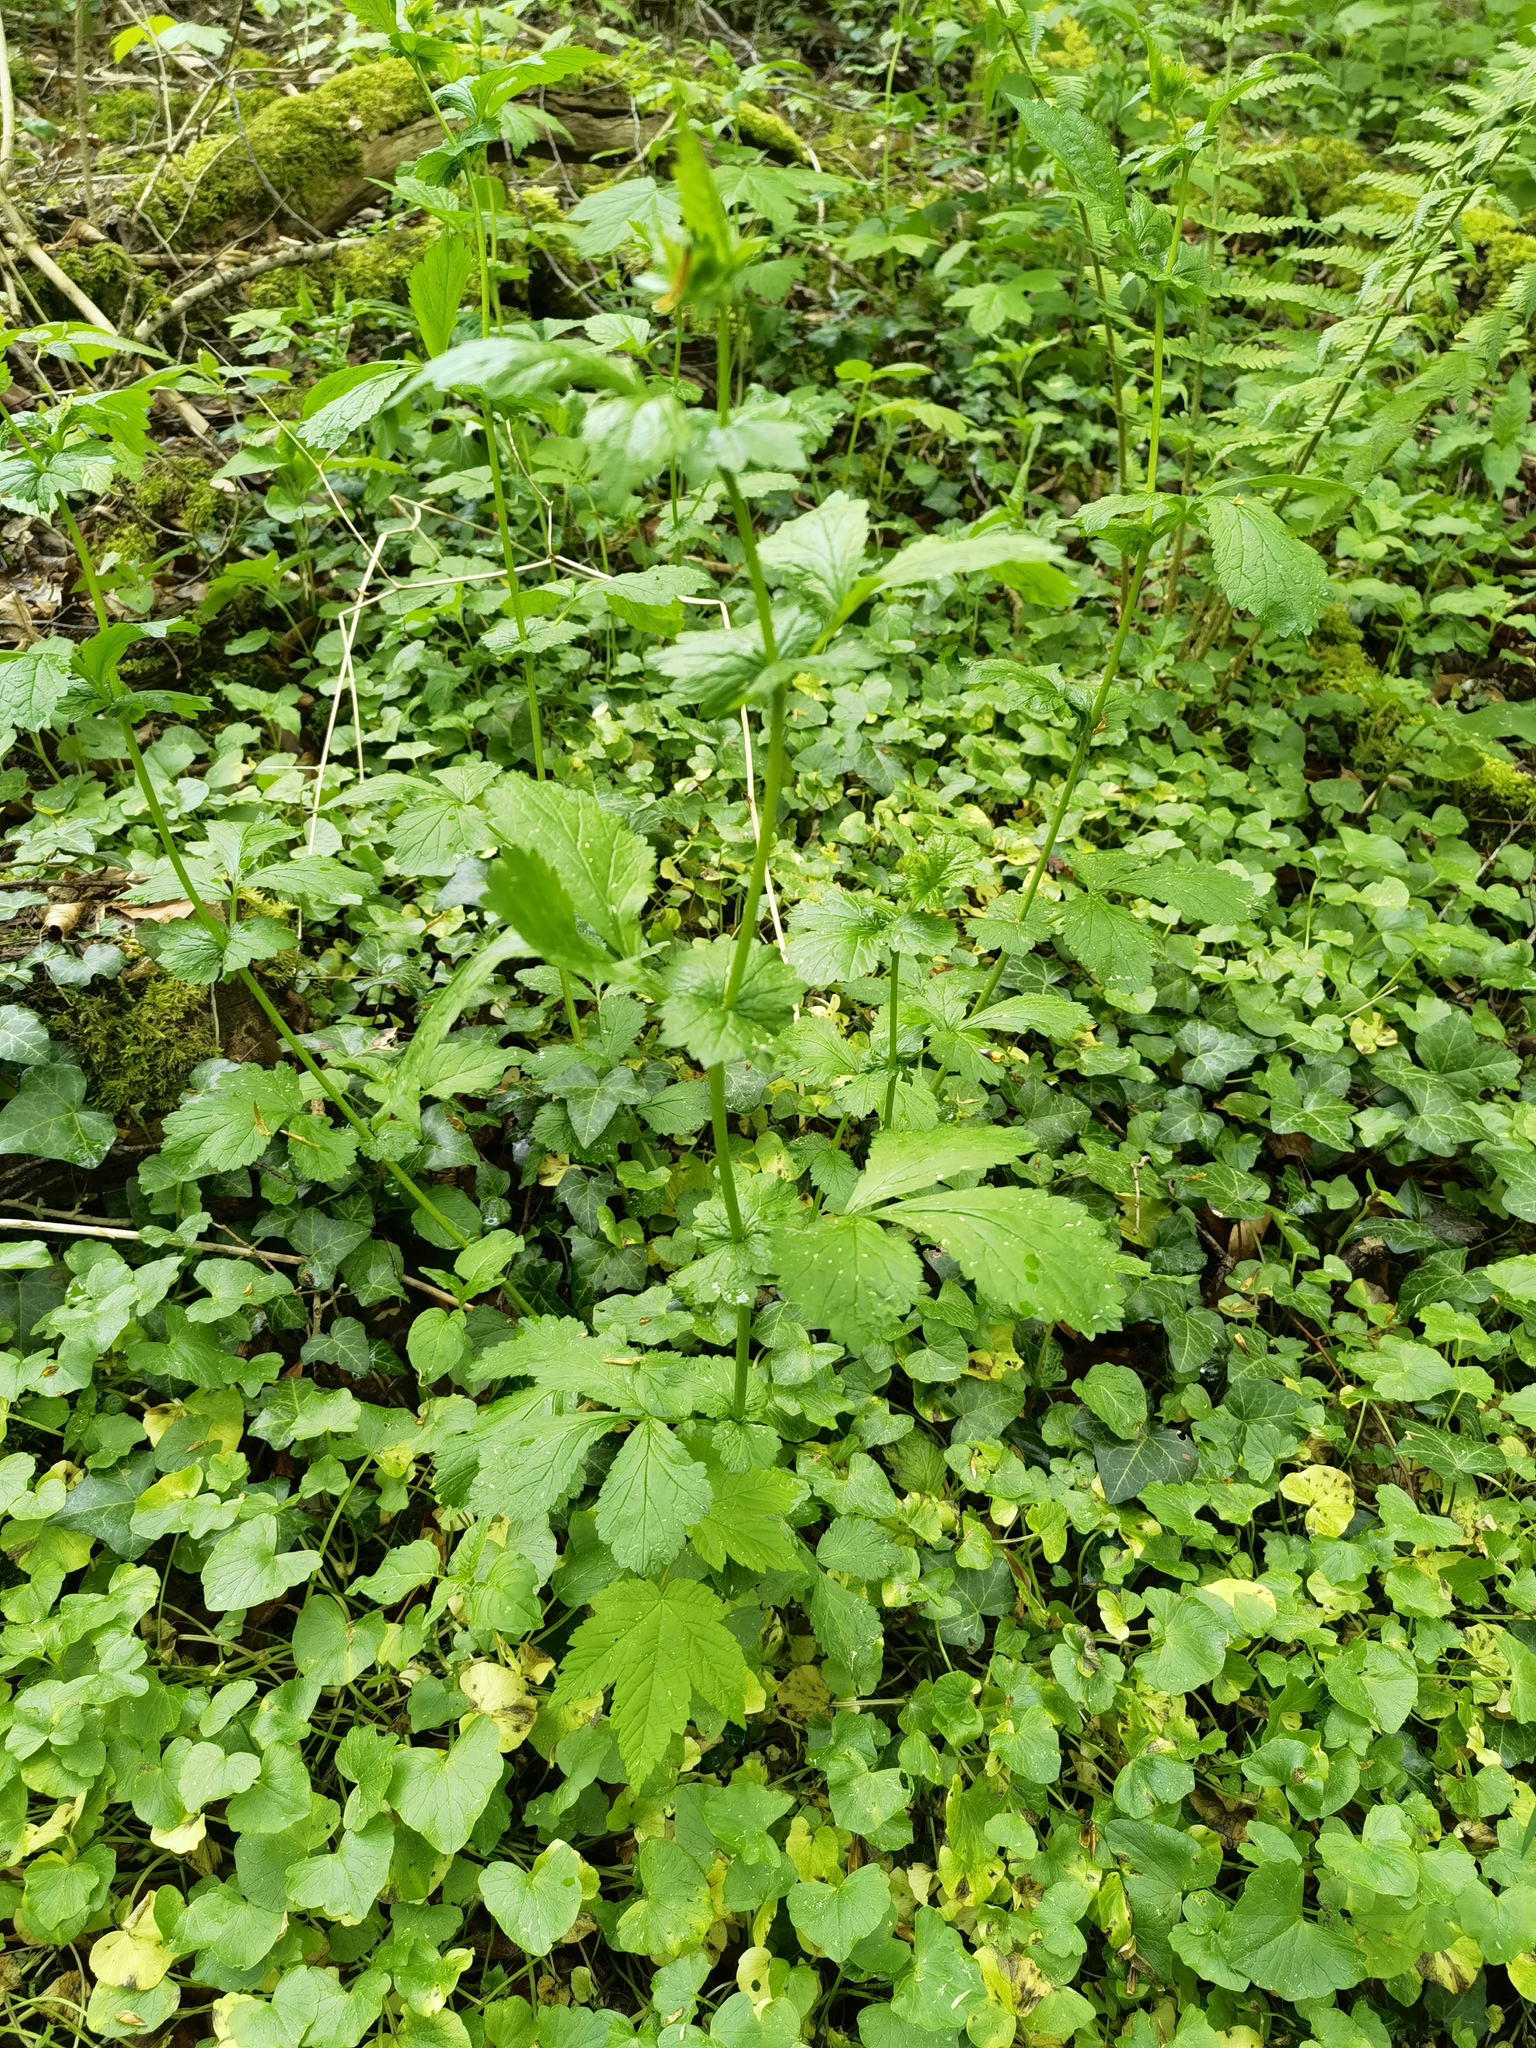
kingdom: Plantae
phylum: Tracheophyta
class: Magnoliopsida
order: Rosales
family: Rosaceae
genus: Geum
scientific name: Geum urbanum
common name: Wood avens
